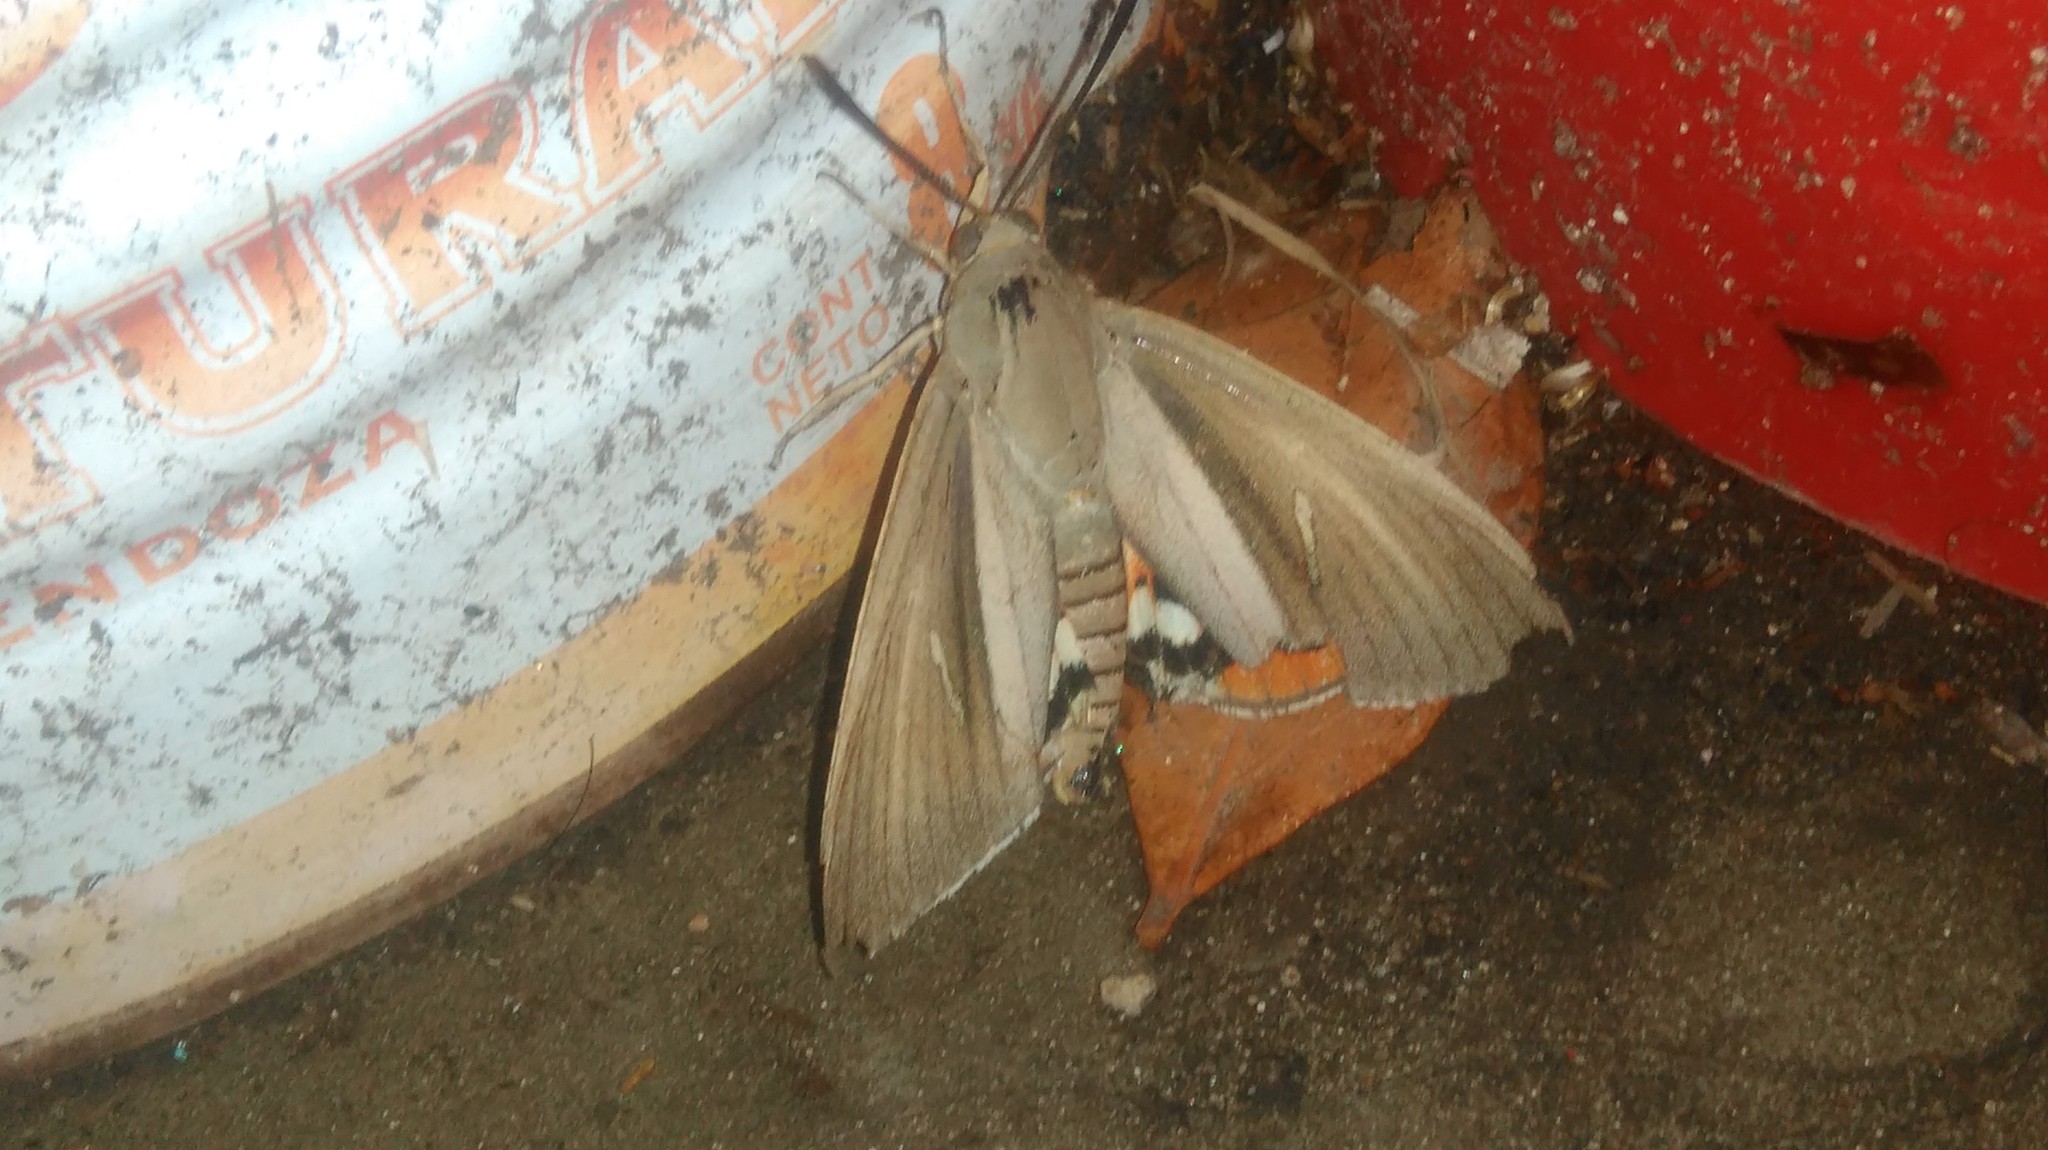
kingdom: Animalia
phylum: Arthropoda
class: Insecta
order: Lepidoptera
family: Castniidae
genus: Paysandisia
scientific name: Paysandisia archon
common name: Palm moth
